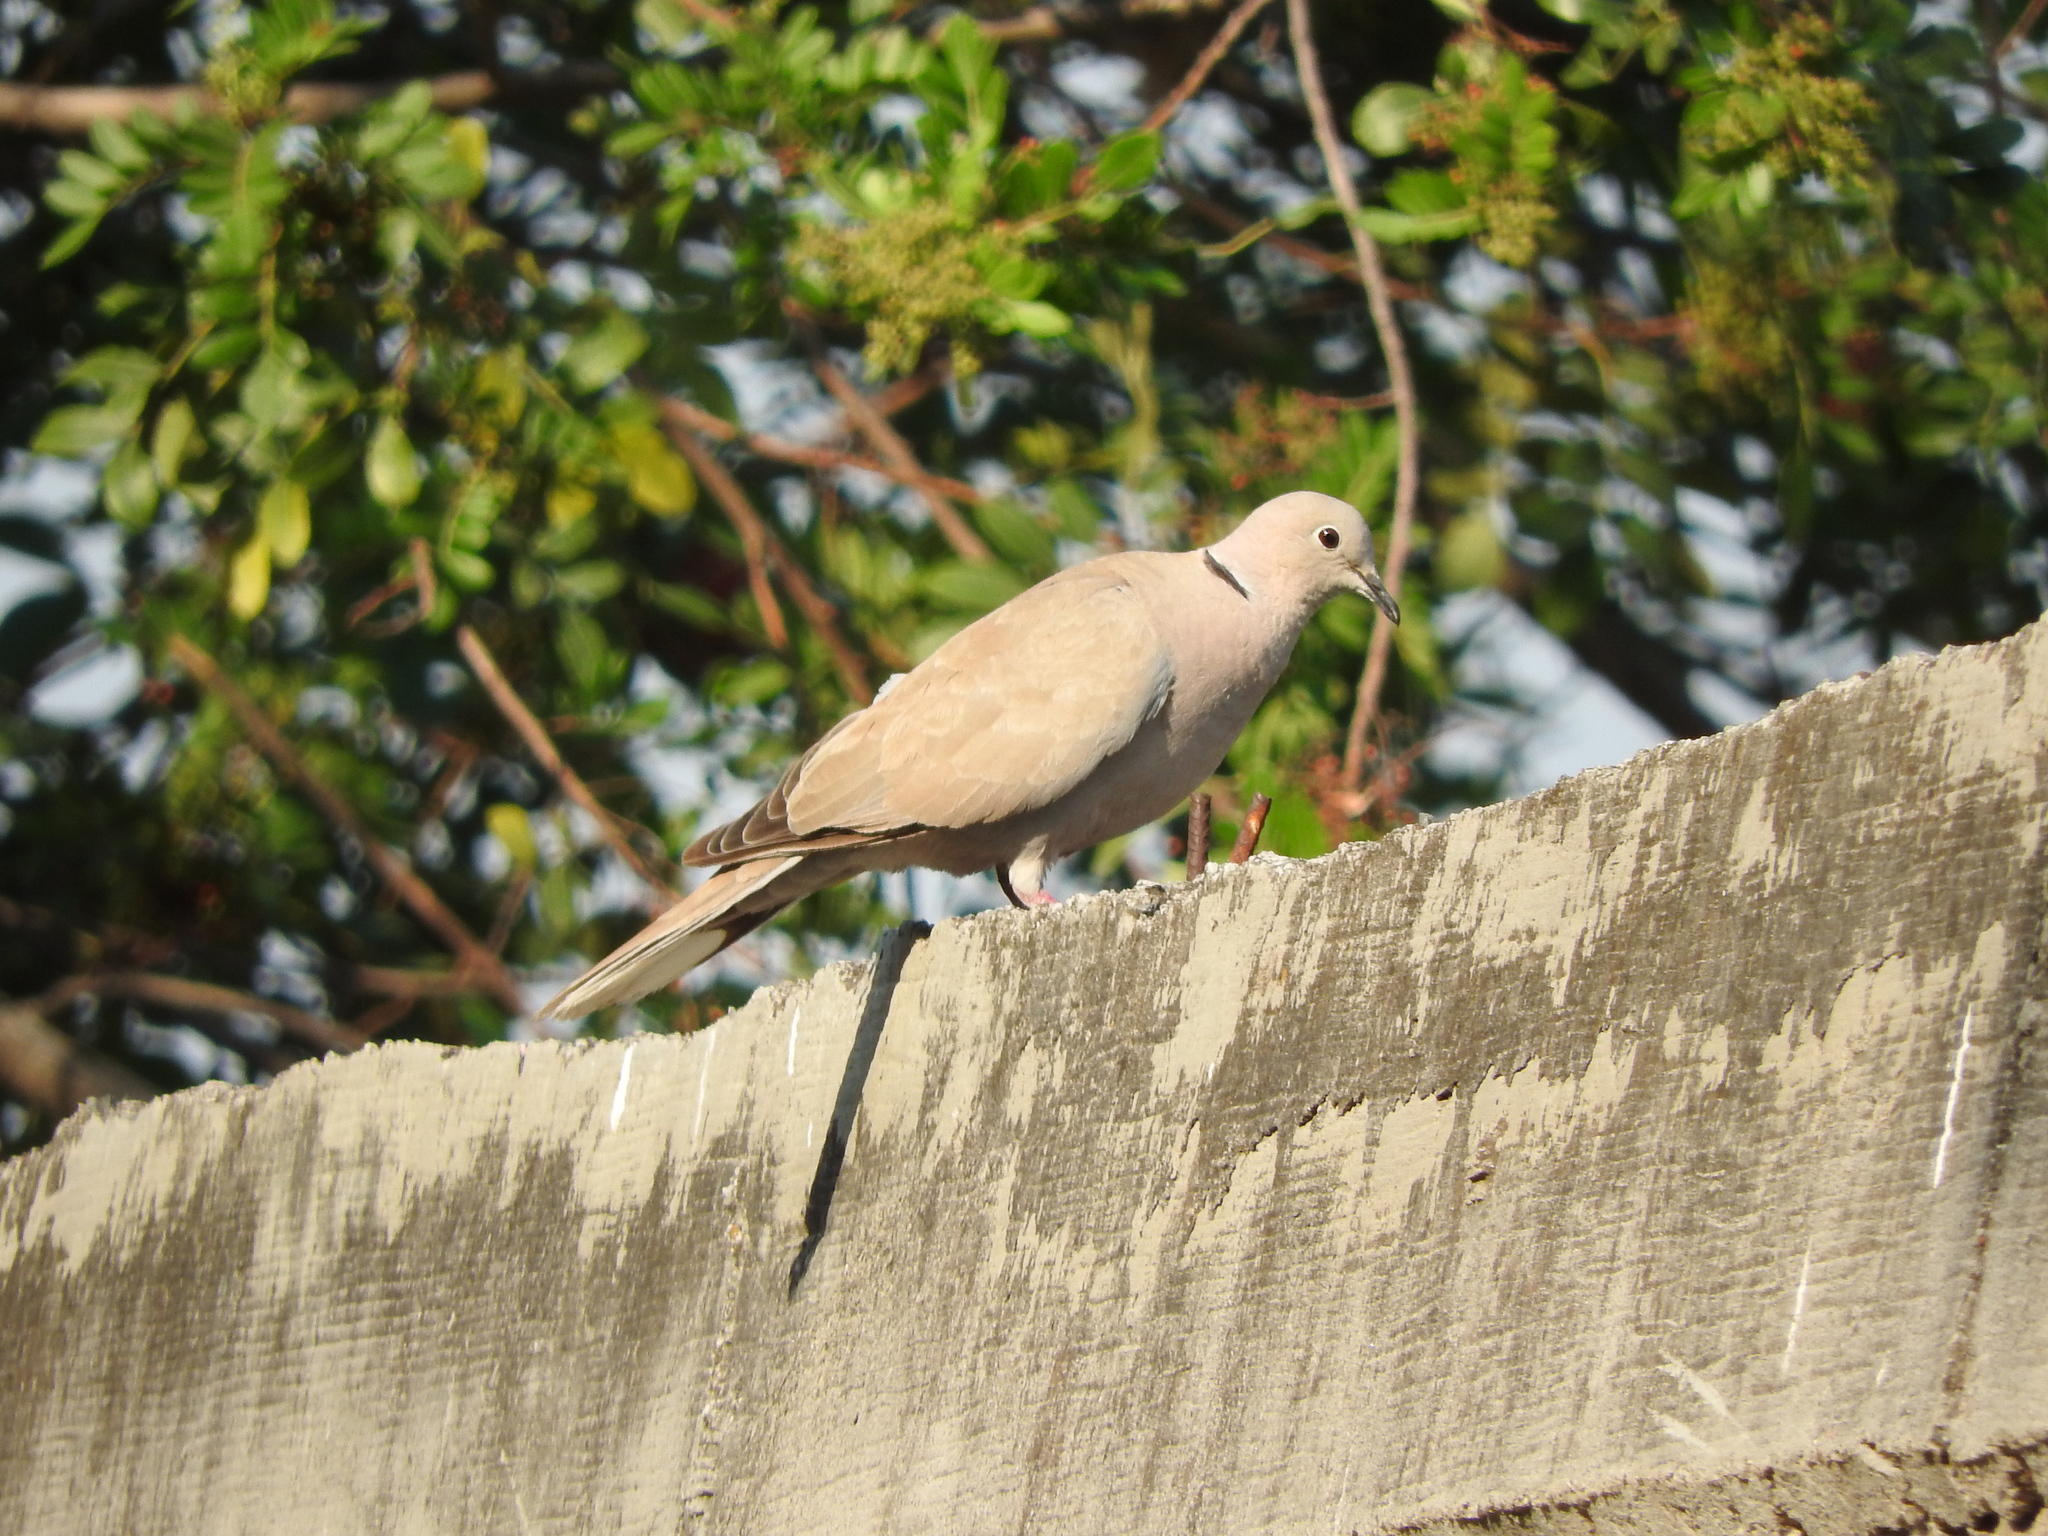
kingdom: Animalia
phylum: Chordata
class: Aves
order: Columbiformes
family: Columbidae
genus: Streptopelia
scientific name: Streptopelia decaocto
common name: Eurasian collared dove
